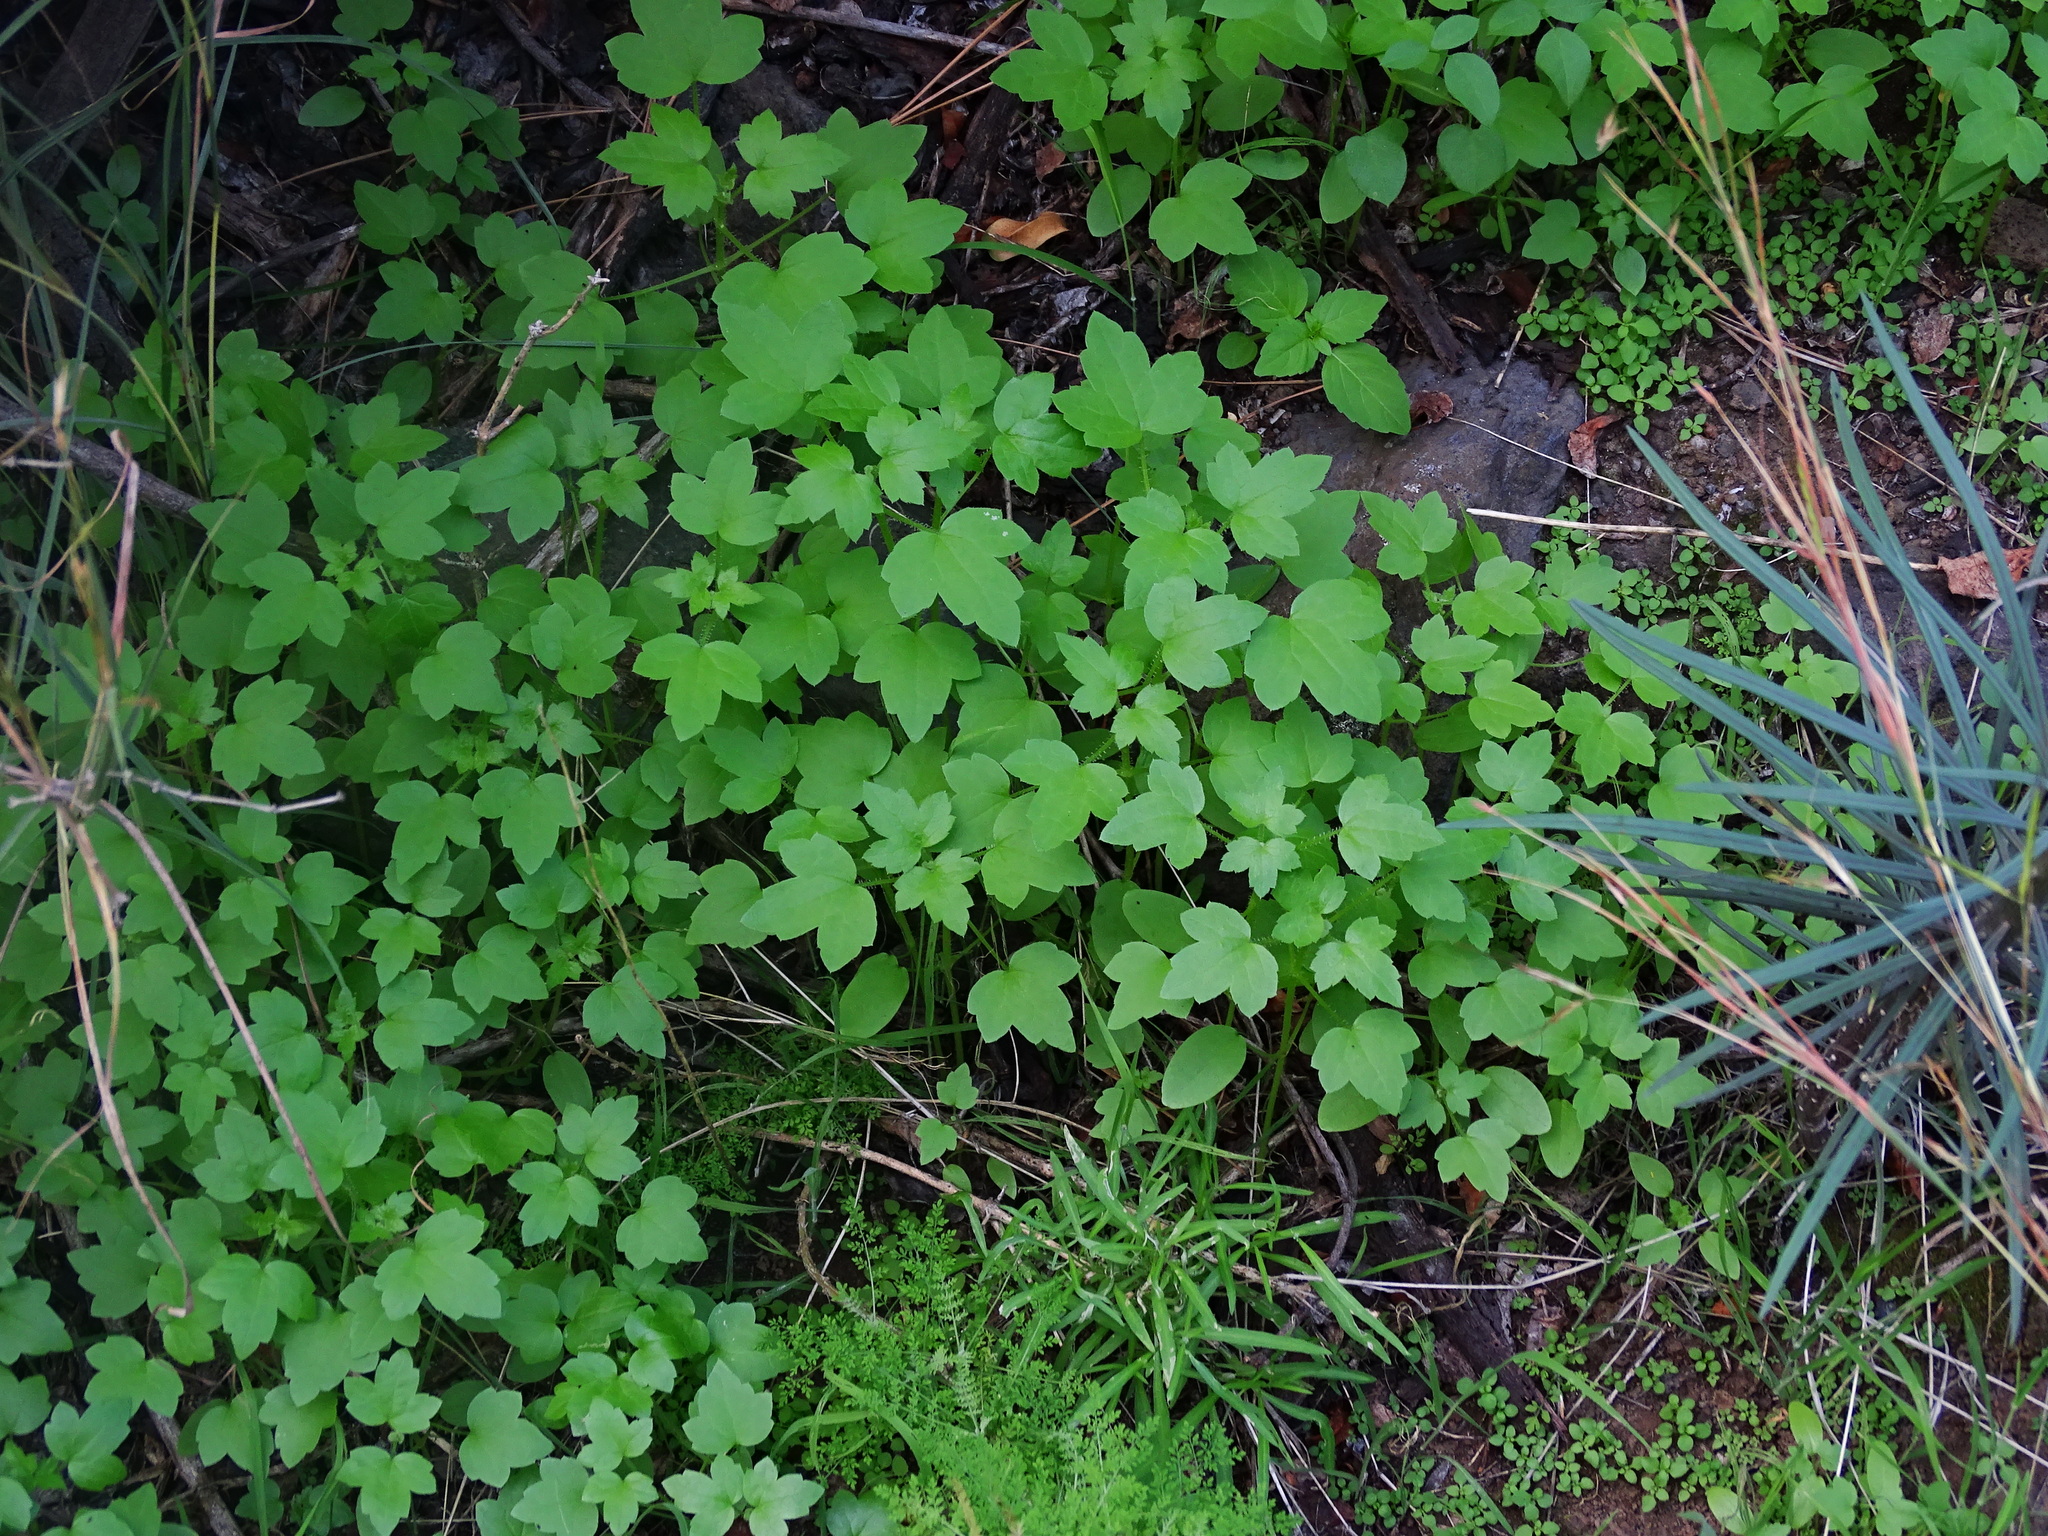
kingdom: Plantae
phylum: Tracheophyta
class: Magnoliopsida
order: Apiales
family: Apiaceae
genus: Drusa
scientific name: Drusa glandulosa
